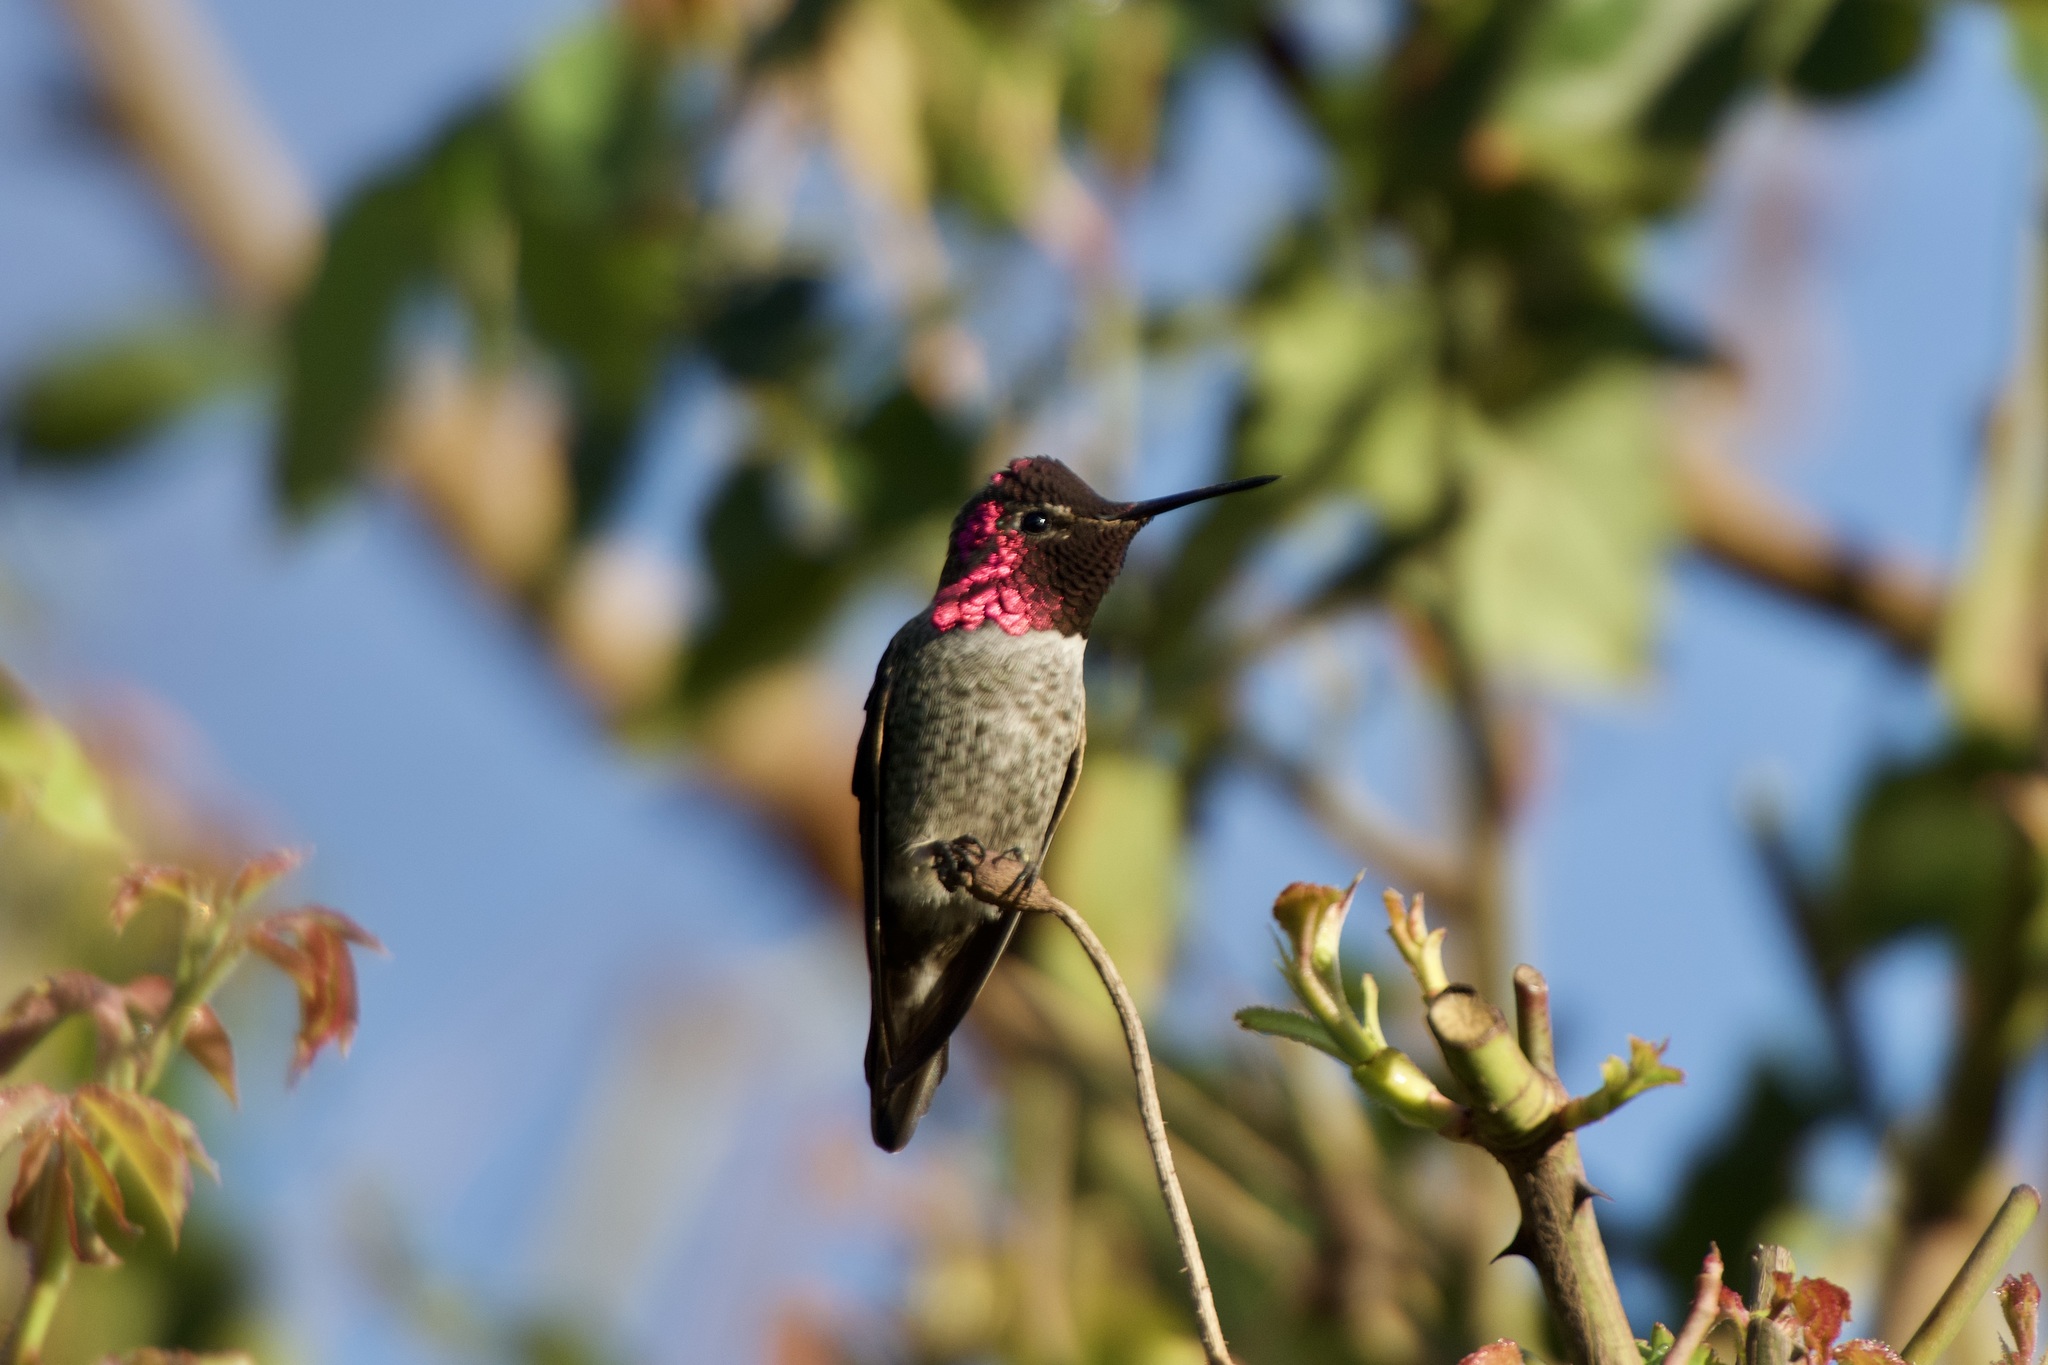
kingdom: Animalia
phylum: Chordata
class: Aves
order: Apodiformes
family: Trochilidae
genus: Calypte
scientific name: Calypte anna
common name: Anna's hummingbird
